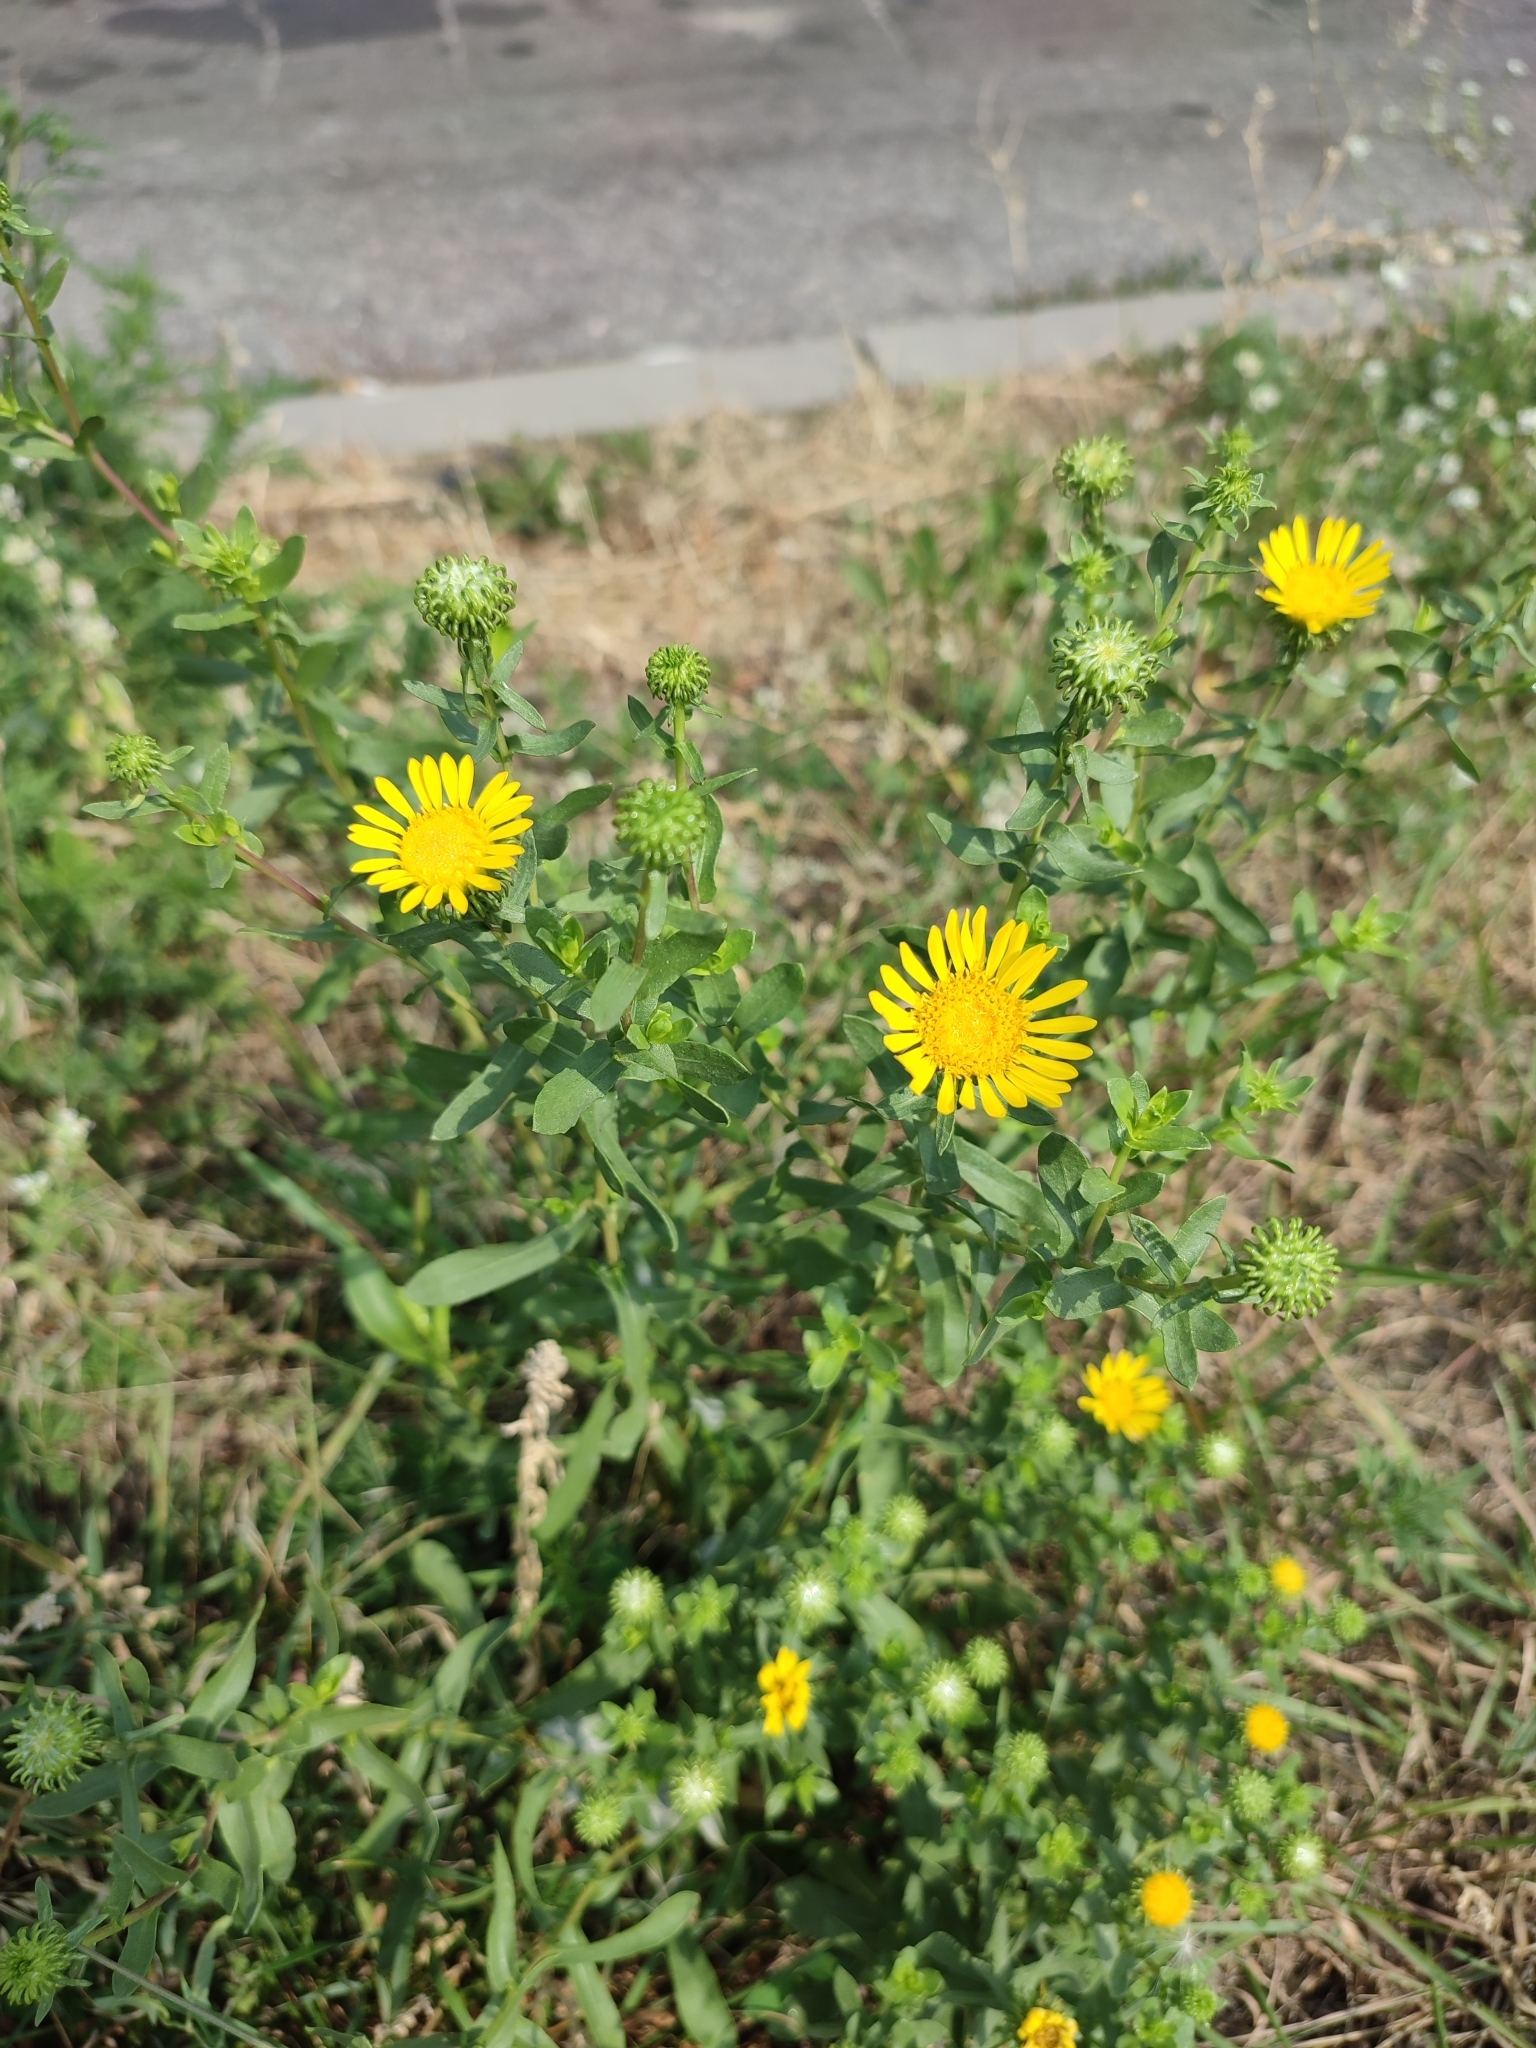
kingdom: Plantae
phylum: Tracheophyta
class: Magnoliopsida
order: Asterales
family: Asteraceae
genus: Grindelia
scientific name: Grindelia squarrosa
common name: Curly-cup gumweed
